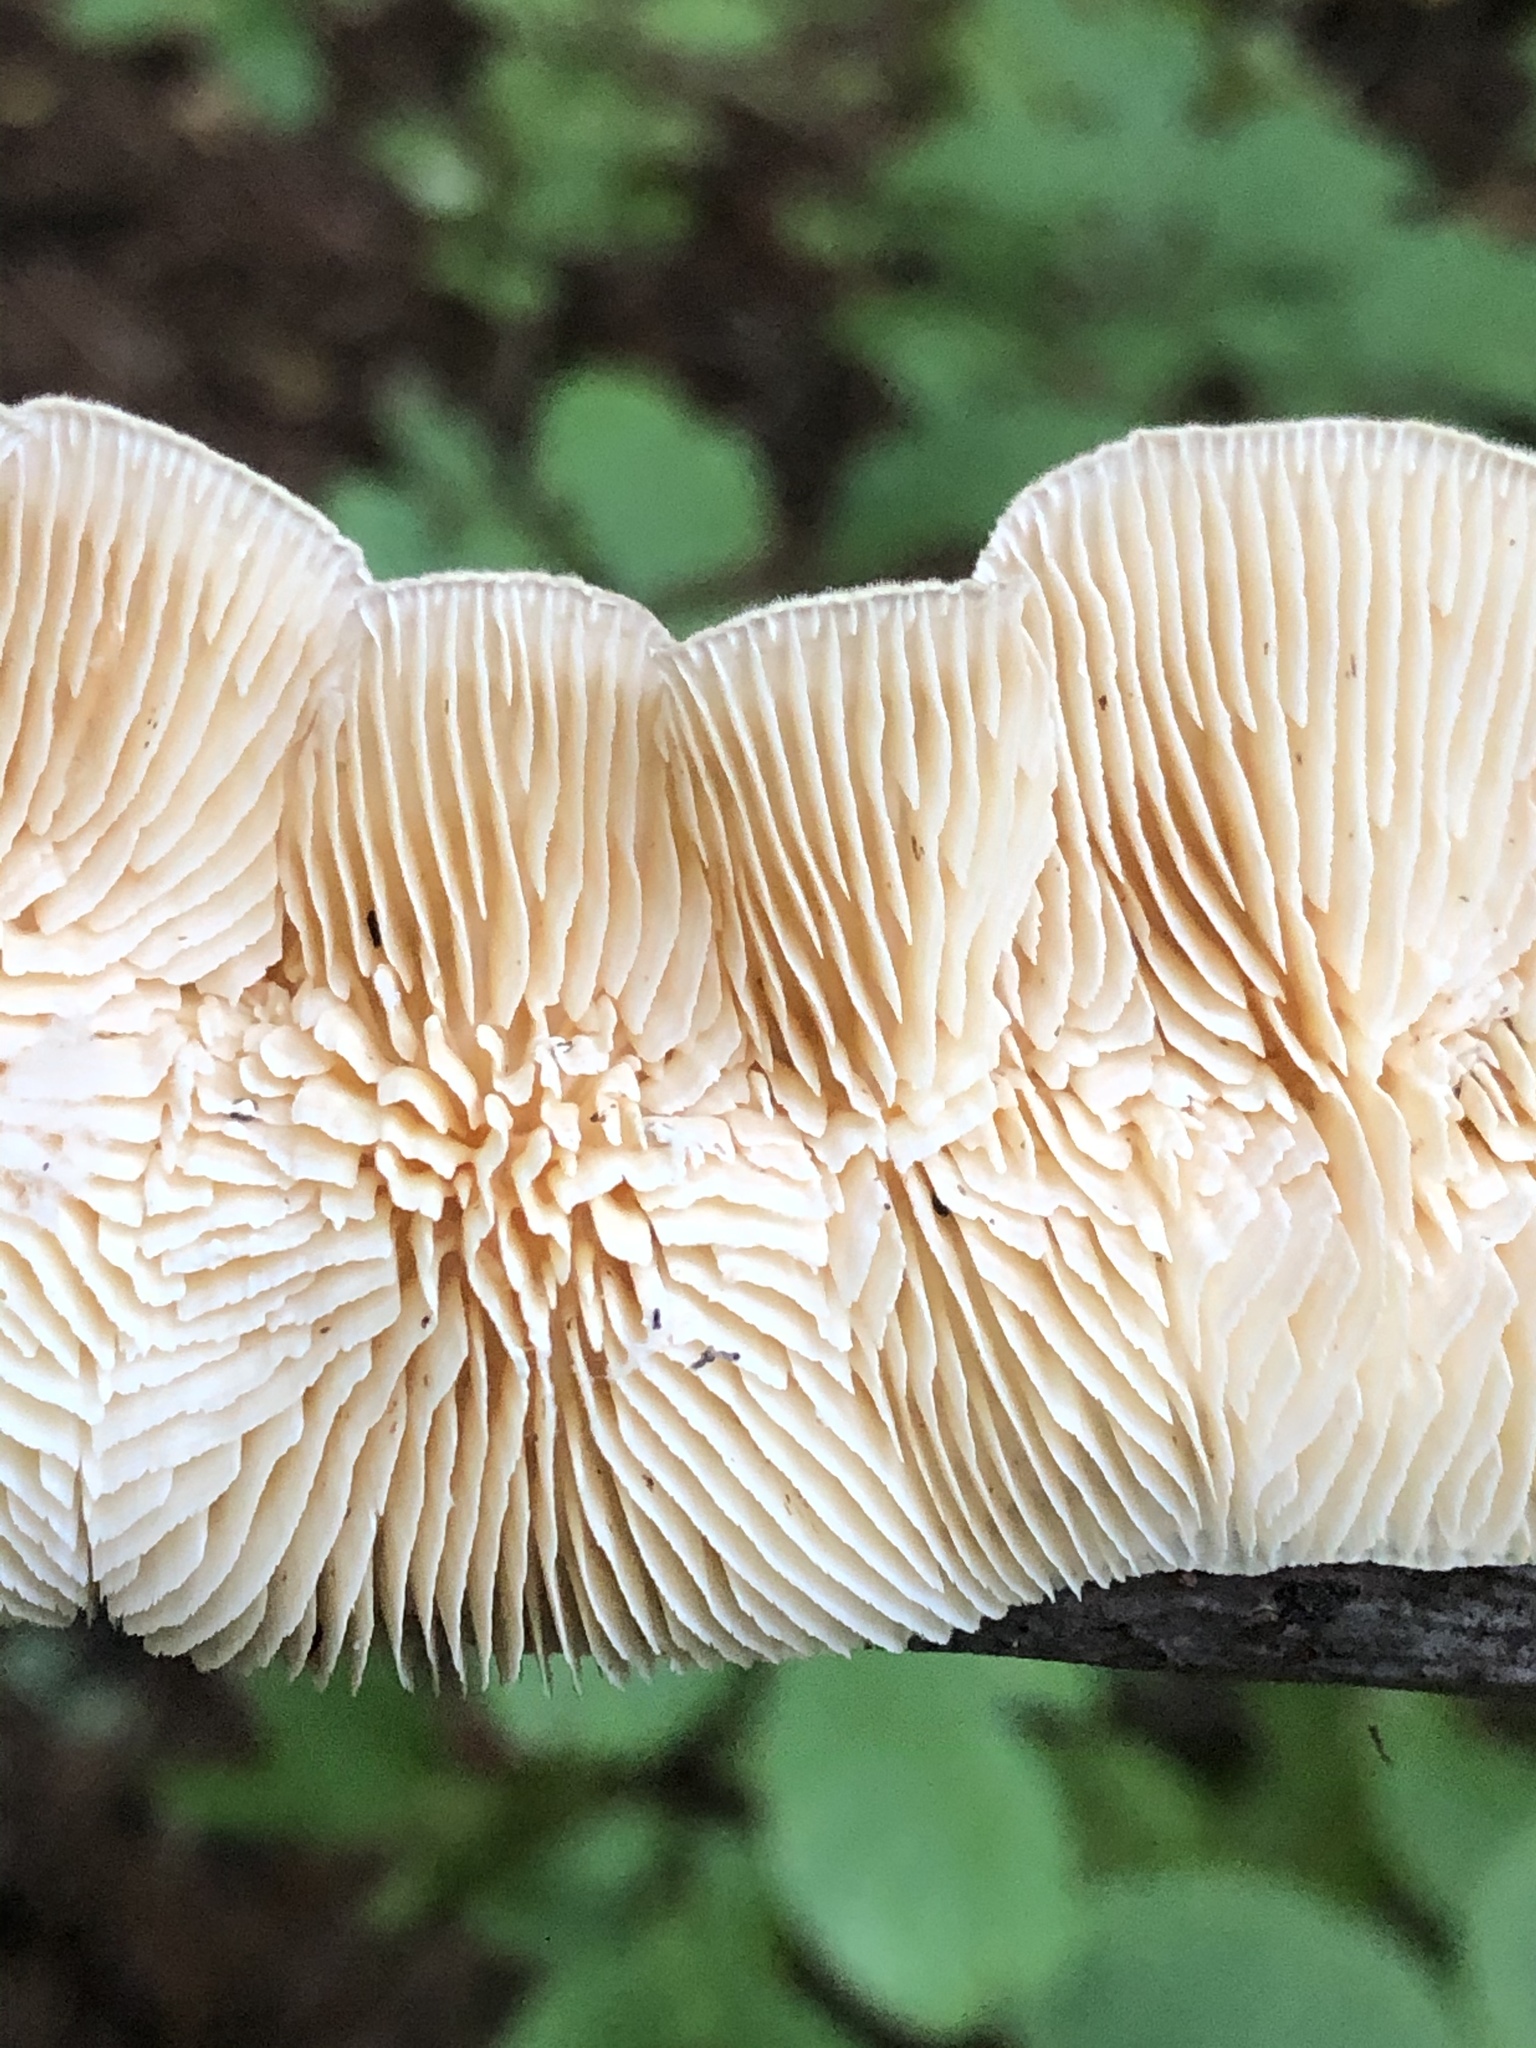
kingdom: Fungi
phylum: Basidiomycota
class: Agaricomycetes
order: Polyporales
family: Polyporaceae
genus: Lenzites
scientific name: Lenzites betulinus
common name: Birch mazegill
